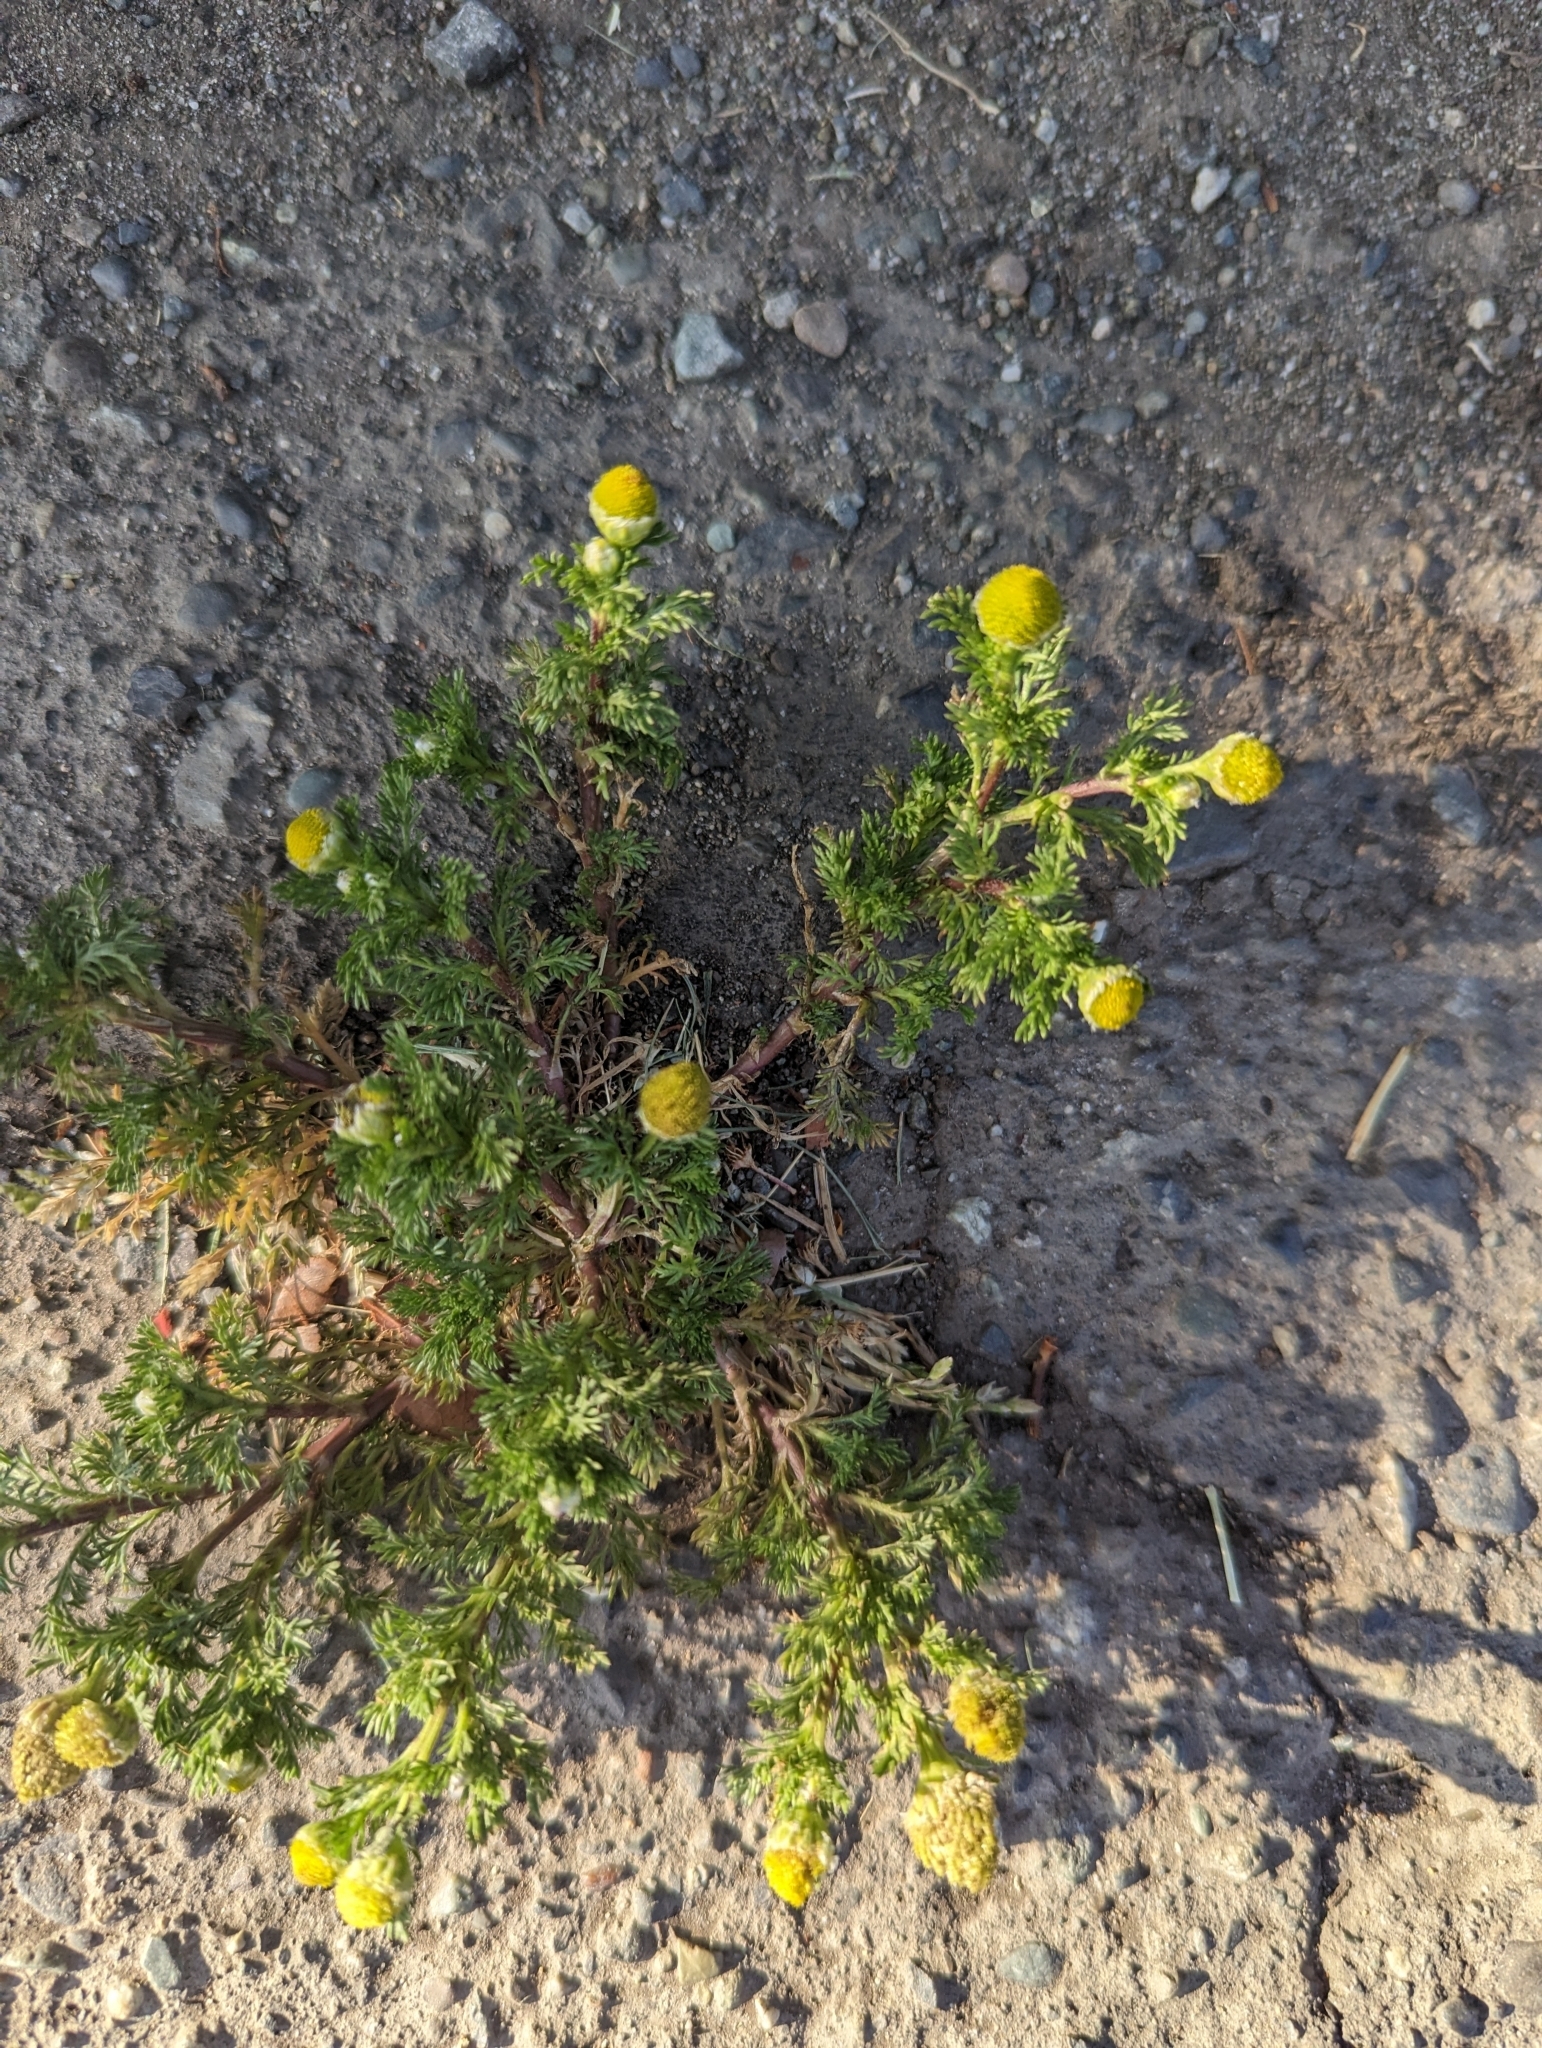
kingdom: Plantae
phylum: Tracheophyta
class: Magnoliopsida
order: Asterales
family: Asteraceae
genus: Matricaria
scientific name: Matricaria discoidea
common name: Disc mayweed
